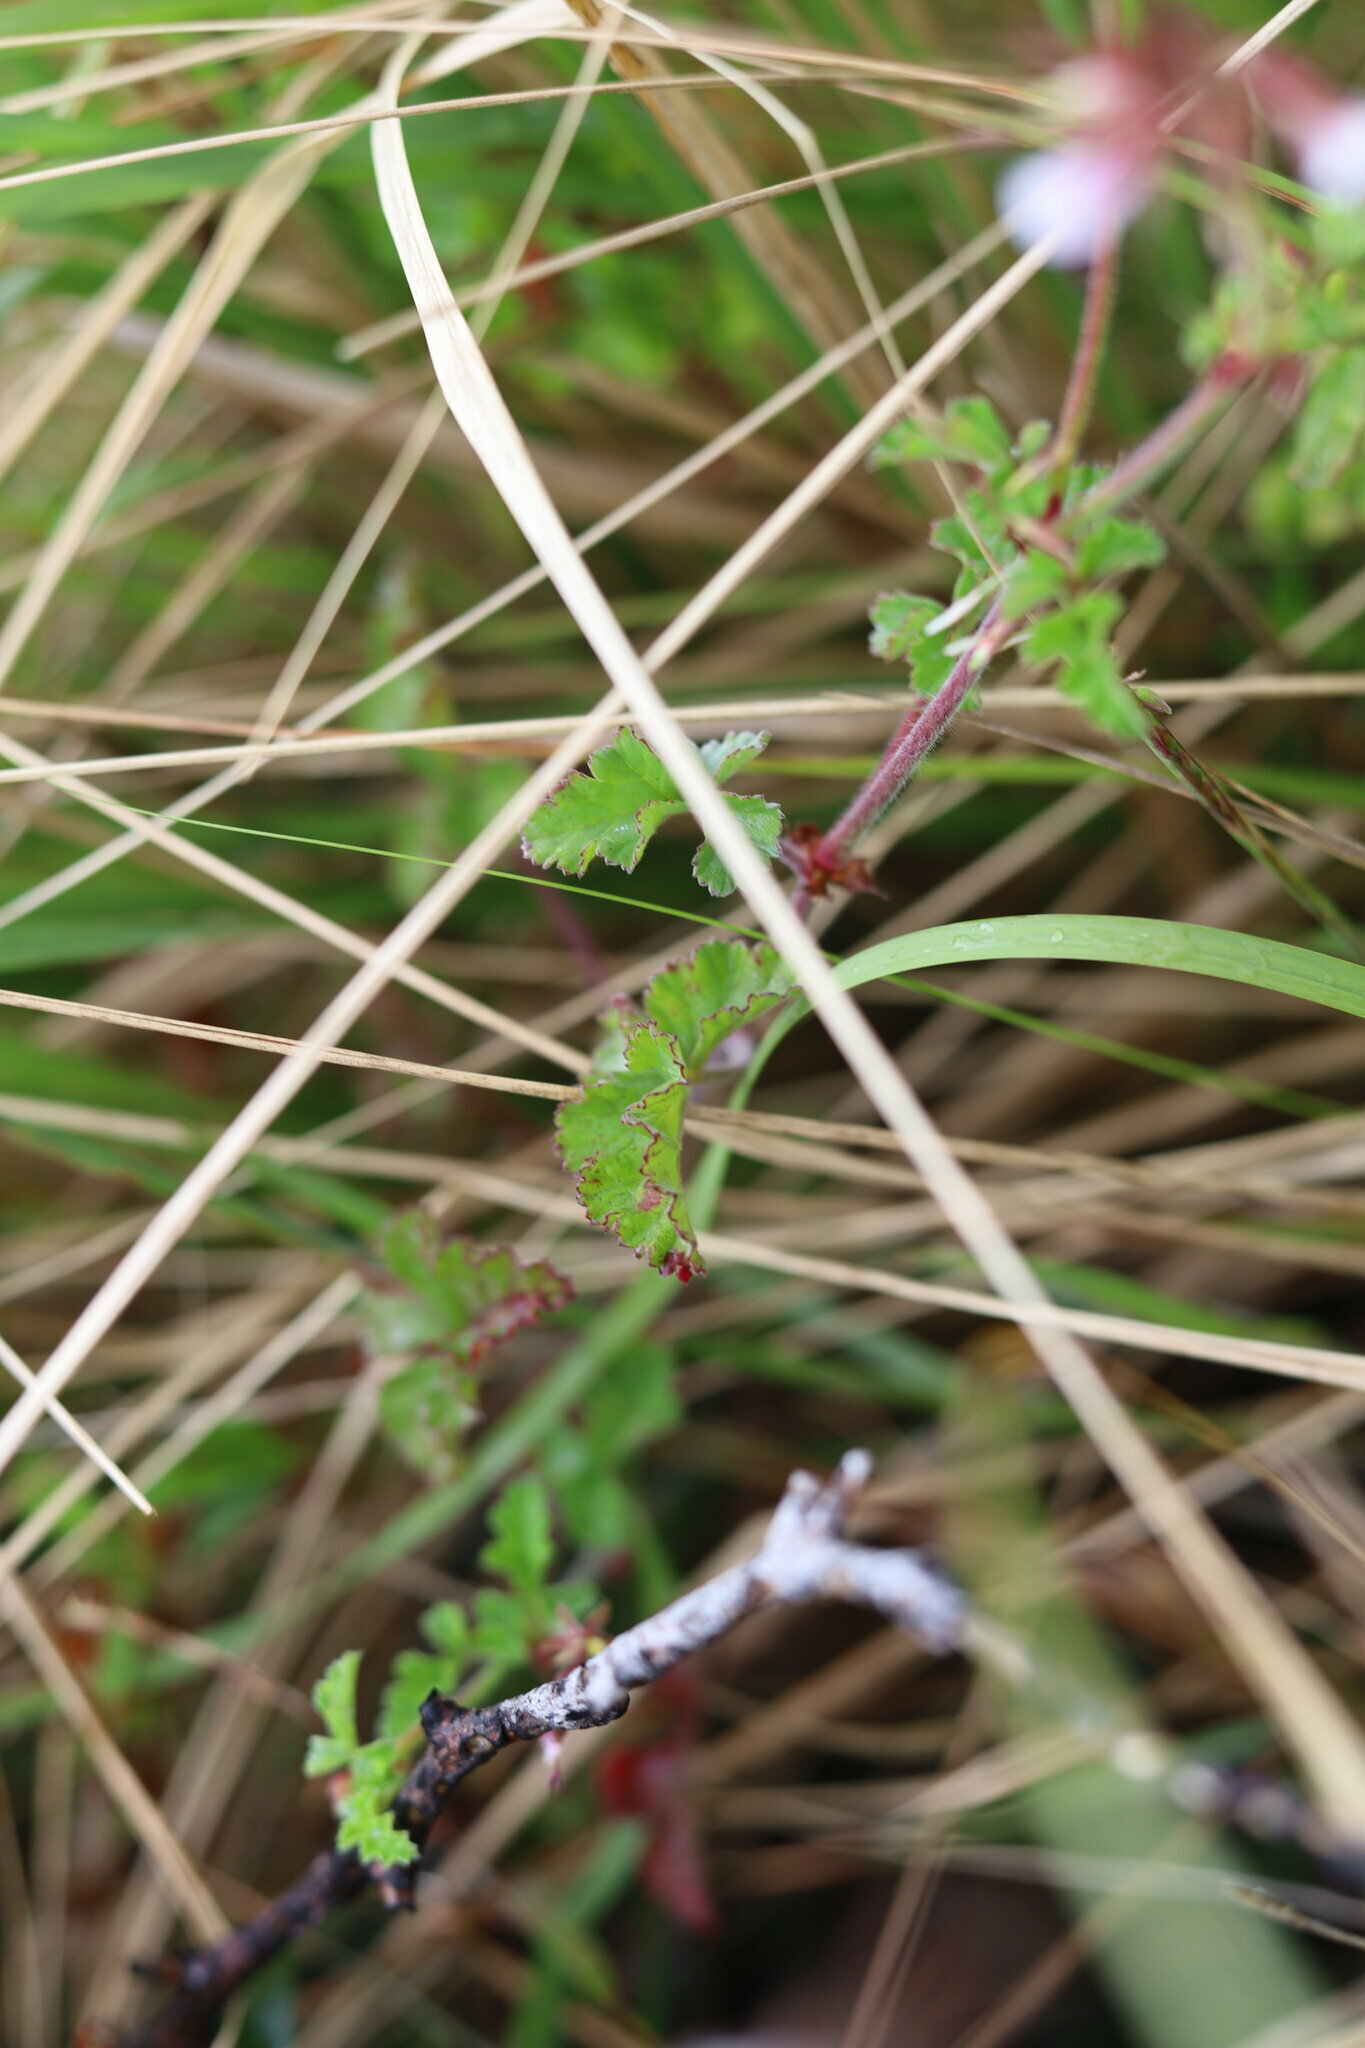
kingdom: Plantae
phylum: Tracheophyta
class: Magnoliopsida
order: Geraniales
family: Geraniaceae
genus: Pelargonium
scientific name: Pelargonium candicans
